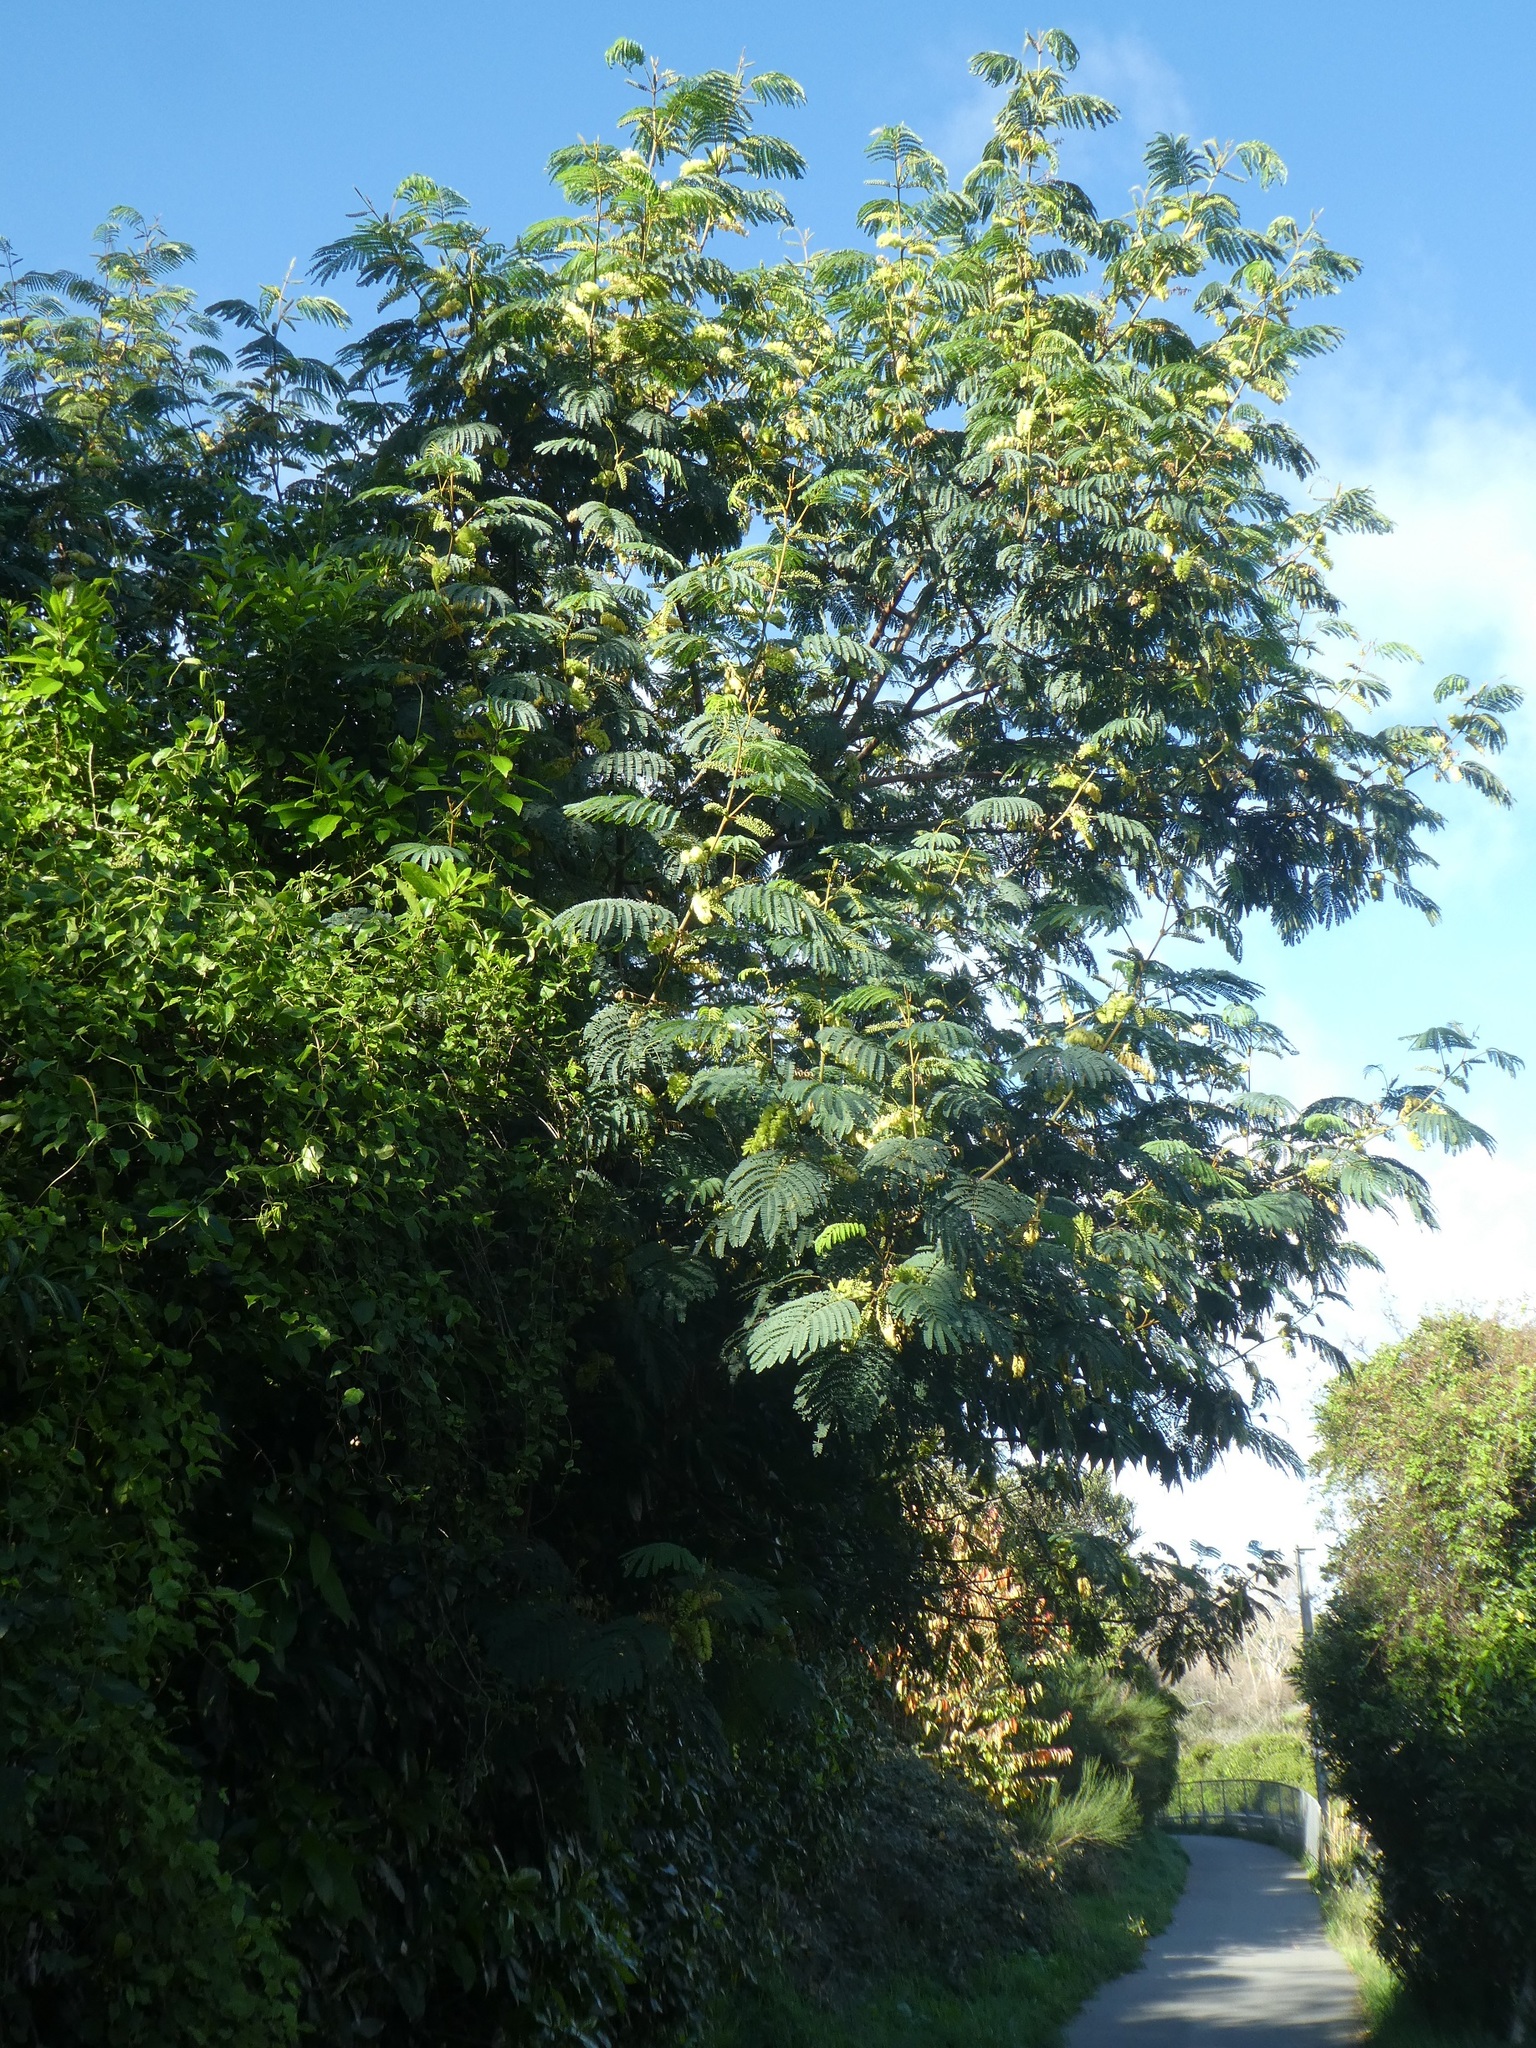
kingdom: Plantae
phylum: Tracheophyta
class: Magnoliopsida
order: Fabales
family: Fabaceae
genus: Paraserianthes
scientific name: Paraserianthes lophantha
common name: Plume albizia
